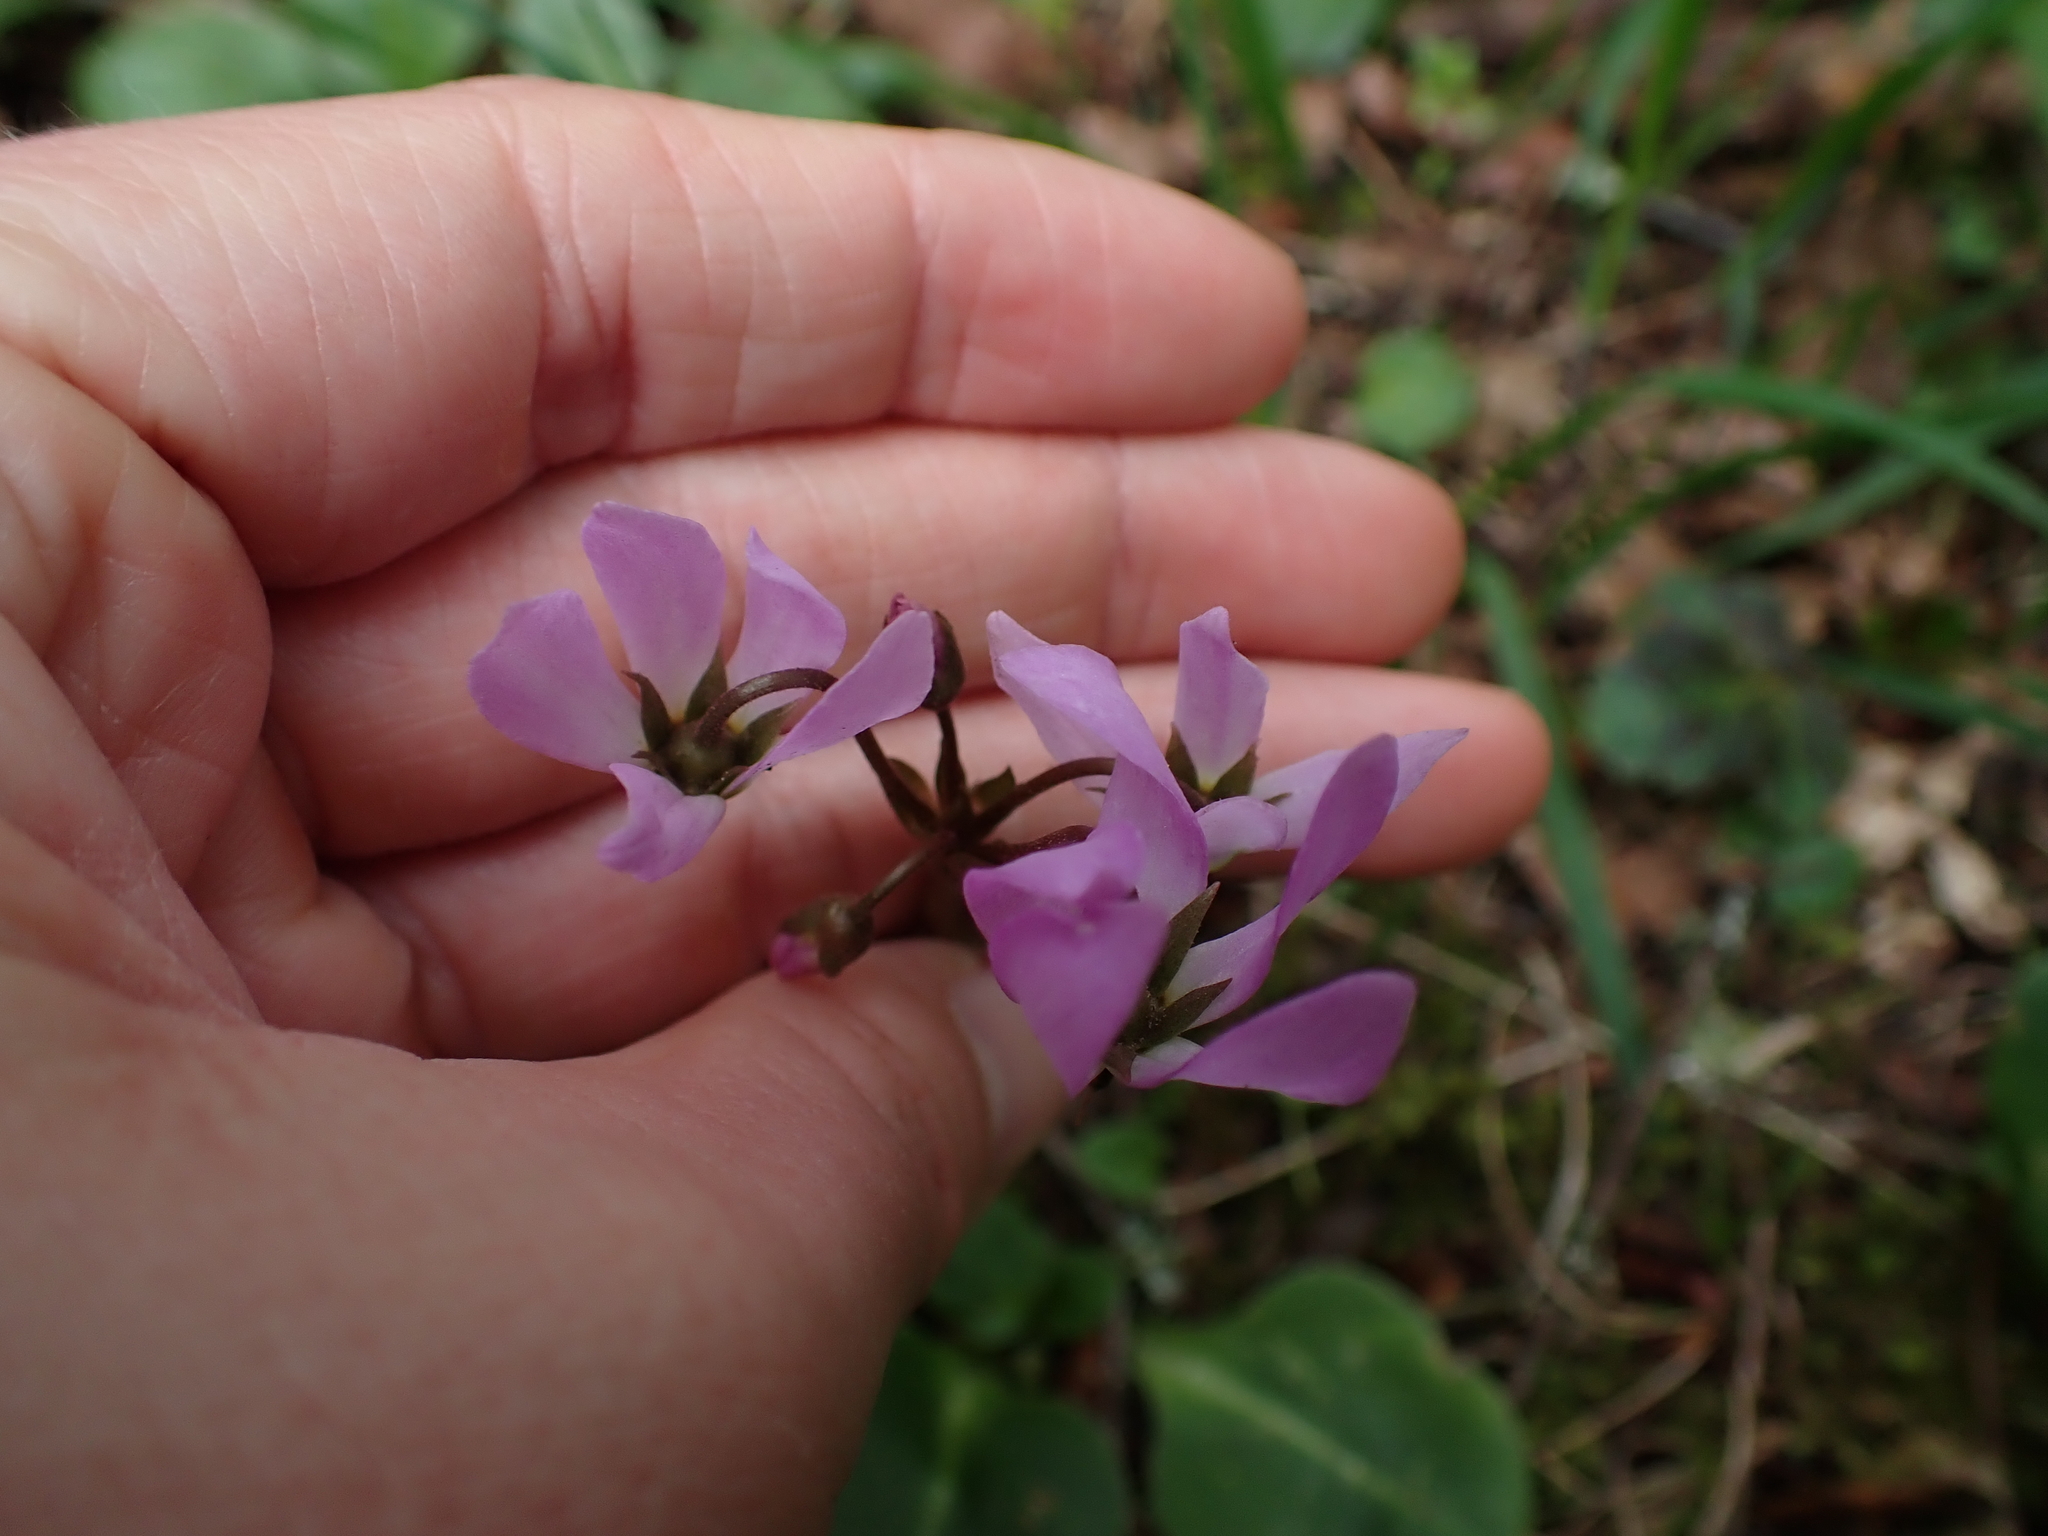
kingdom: Plantae
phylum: Tracheophyta
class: Magnoliopsida
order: Ericales
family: Primulaceae
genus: Dodecatheon
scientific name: Dodecatheon hendersonii
